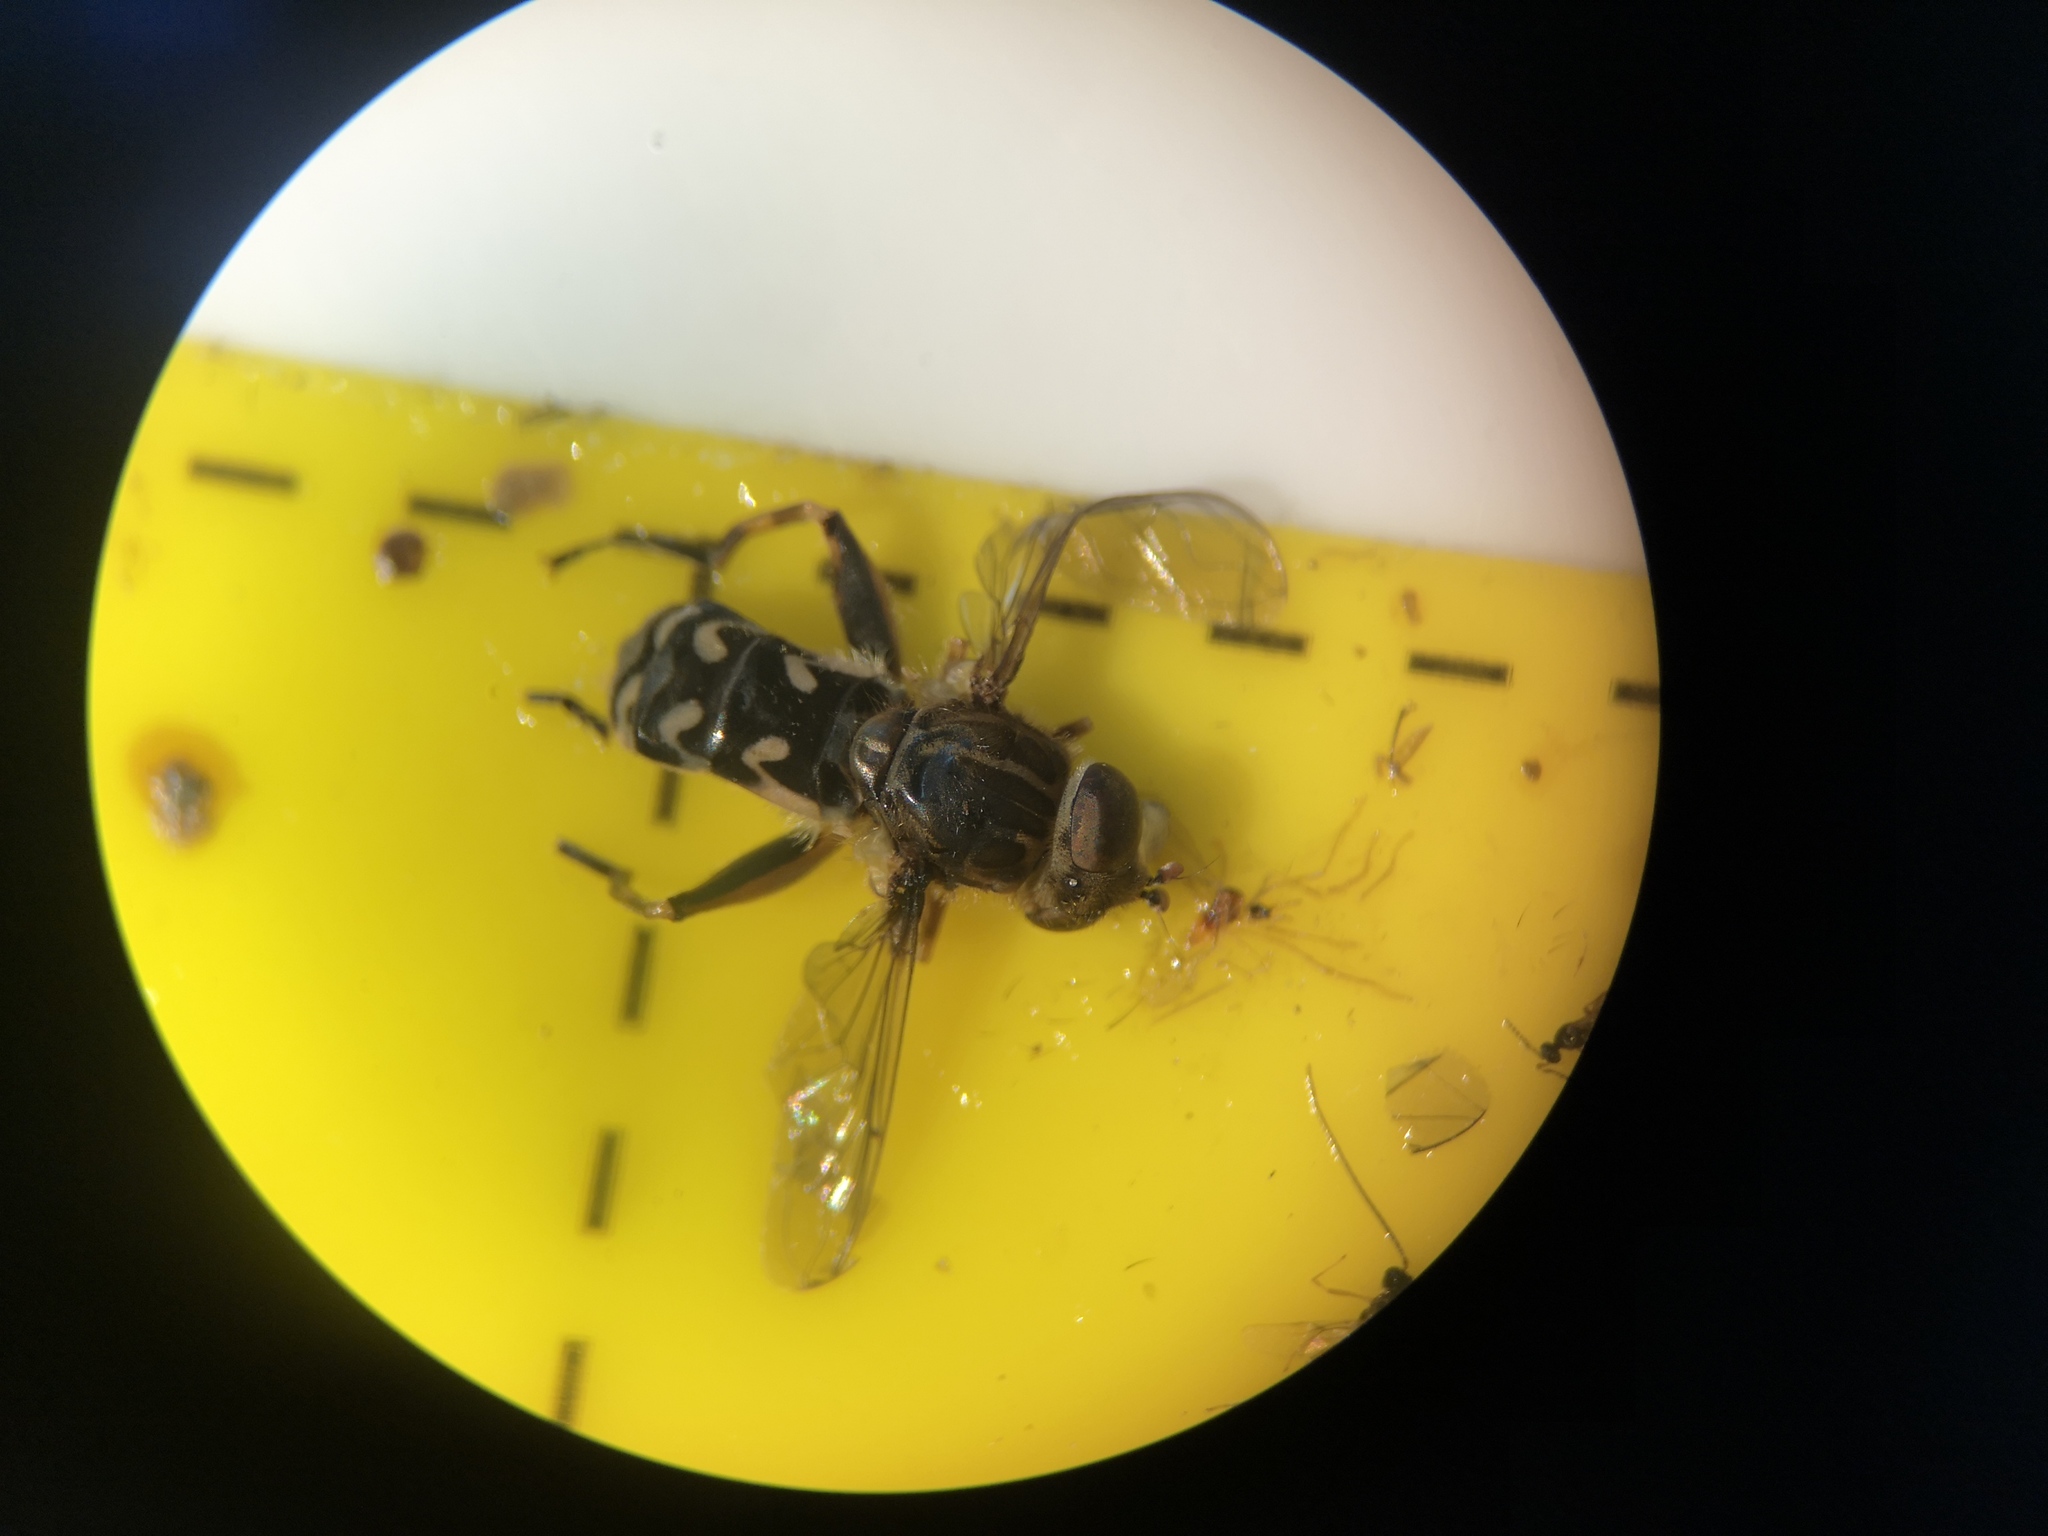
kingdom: Animalia
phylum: Arthropoda
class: Insecta
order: Diptera
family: Syrphidae
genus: Anasimyia
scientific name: Anasimyia transfuga
